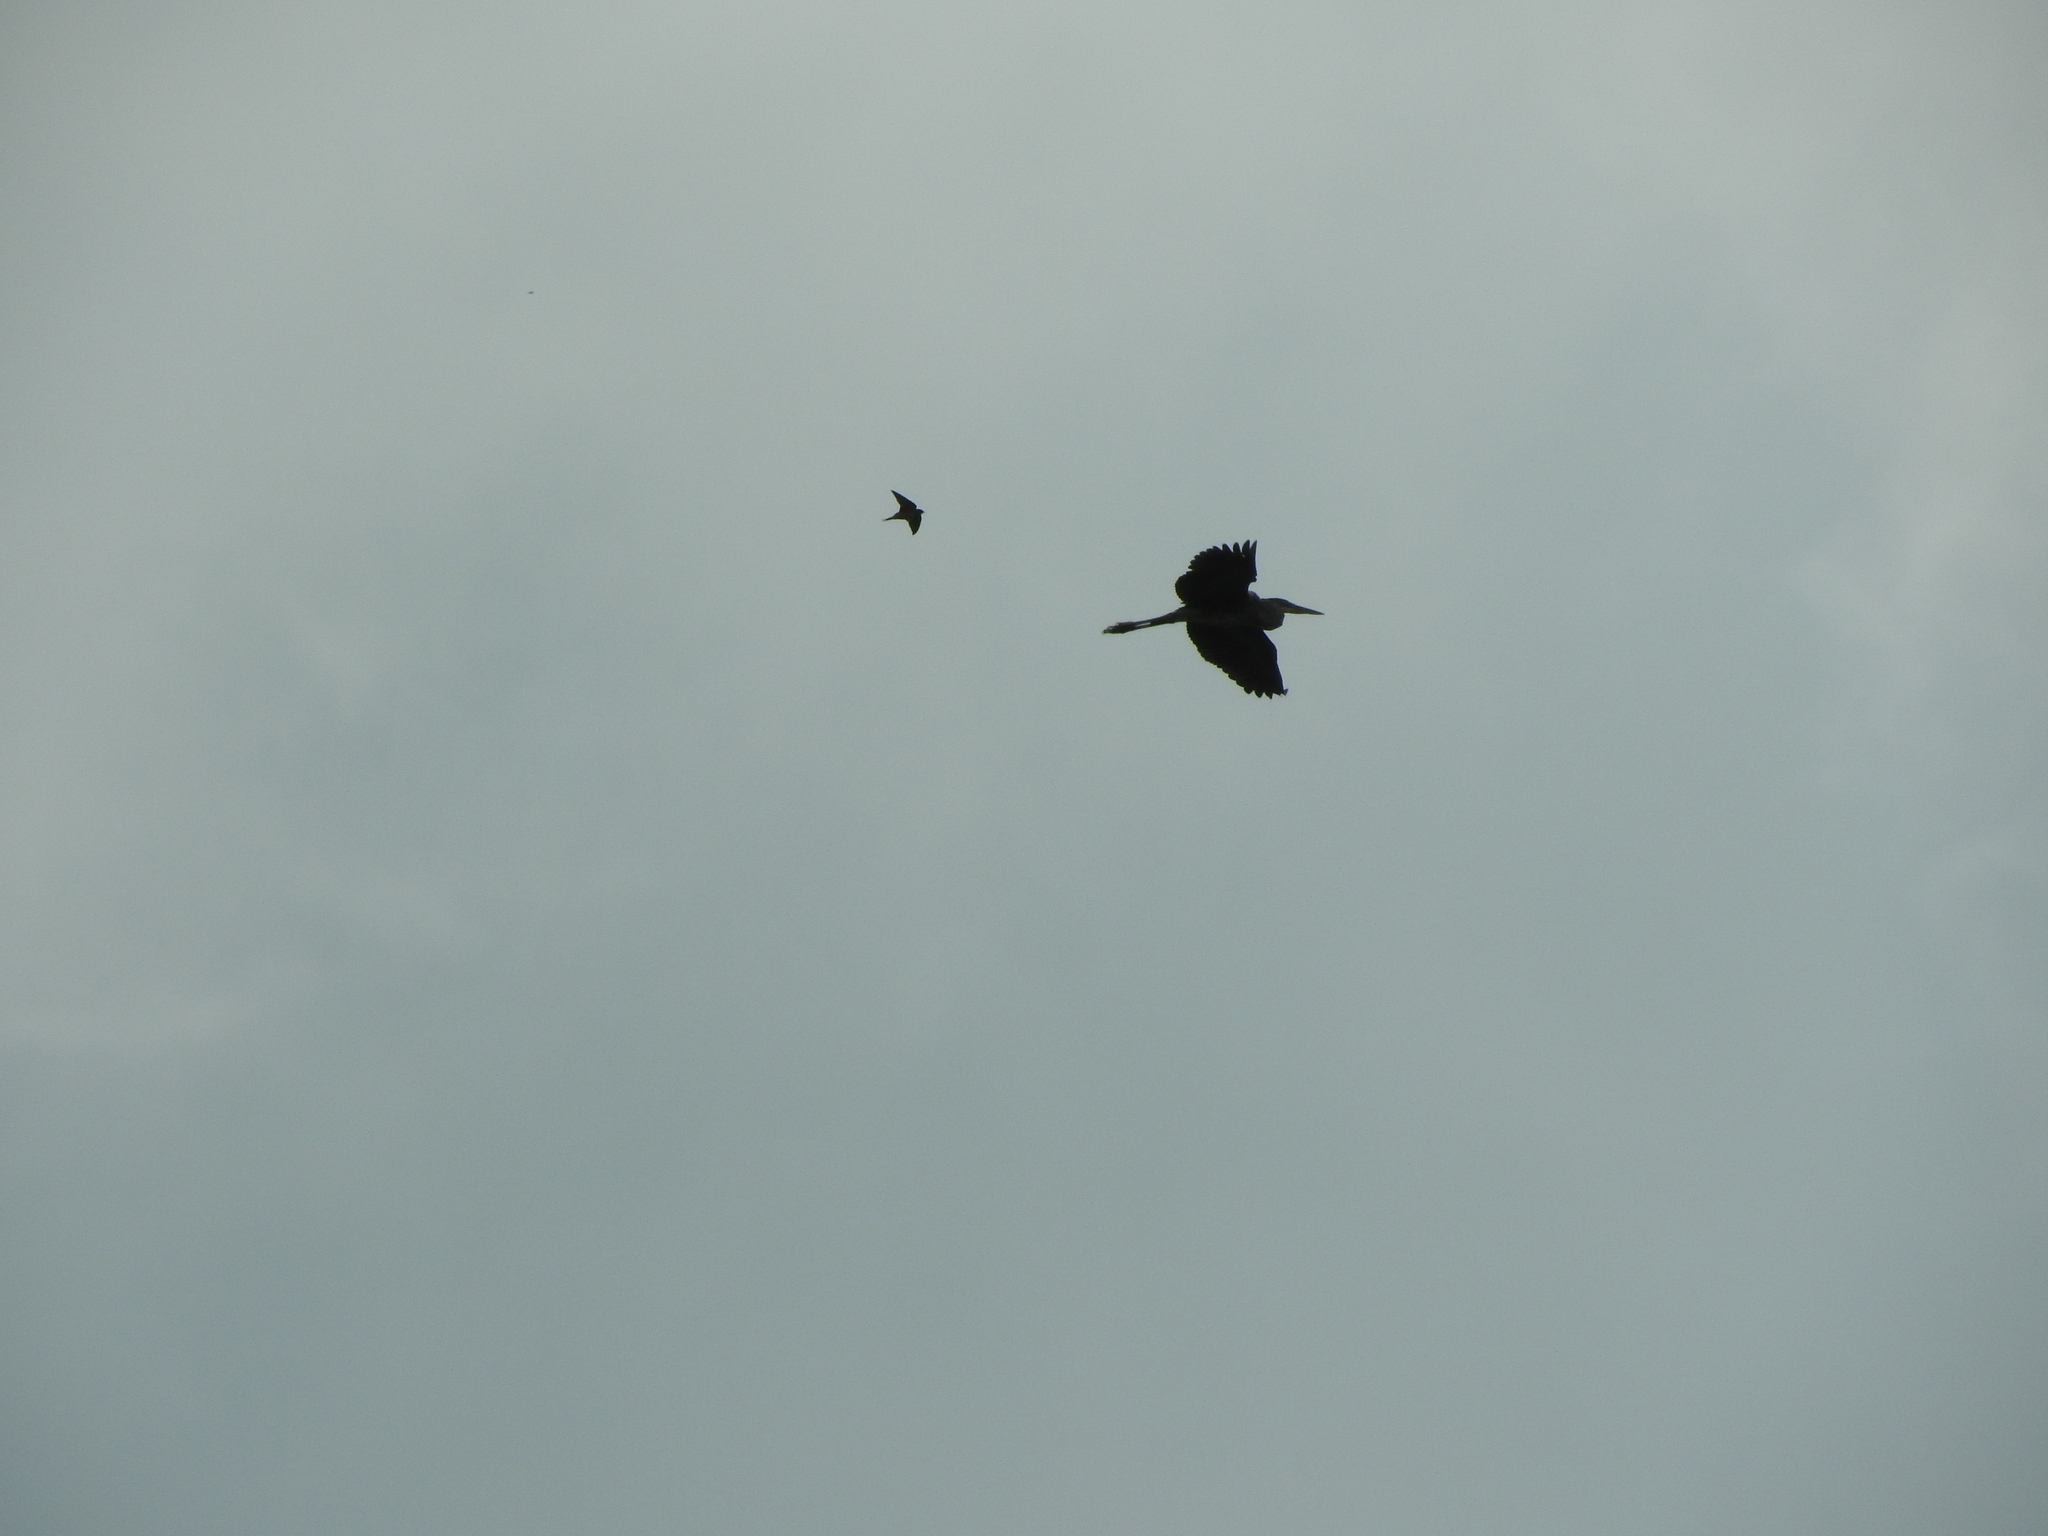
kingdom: Animalia
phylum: Chordata
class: Aves
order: Pelecaniformes
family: Ardeidae
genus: Ardea
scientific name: Ardea herodias
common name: Great blue heron
